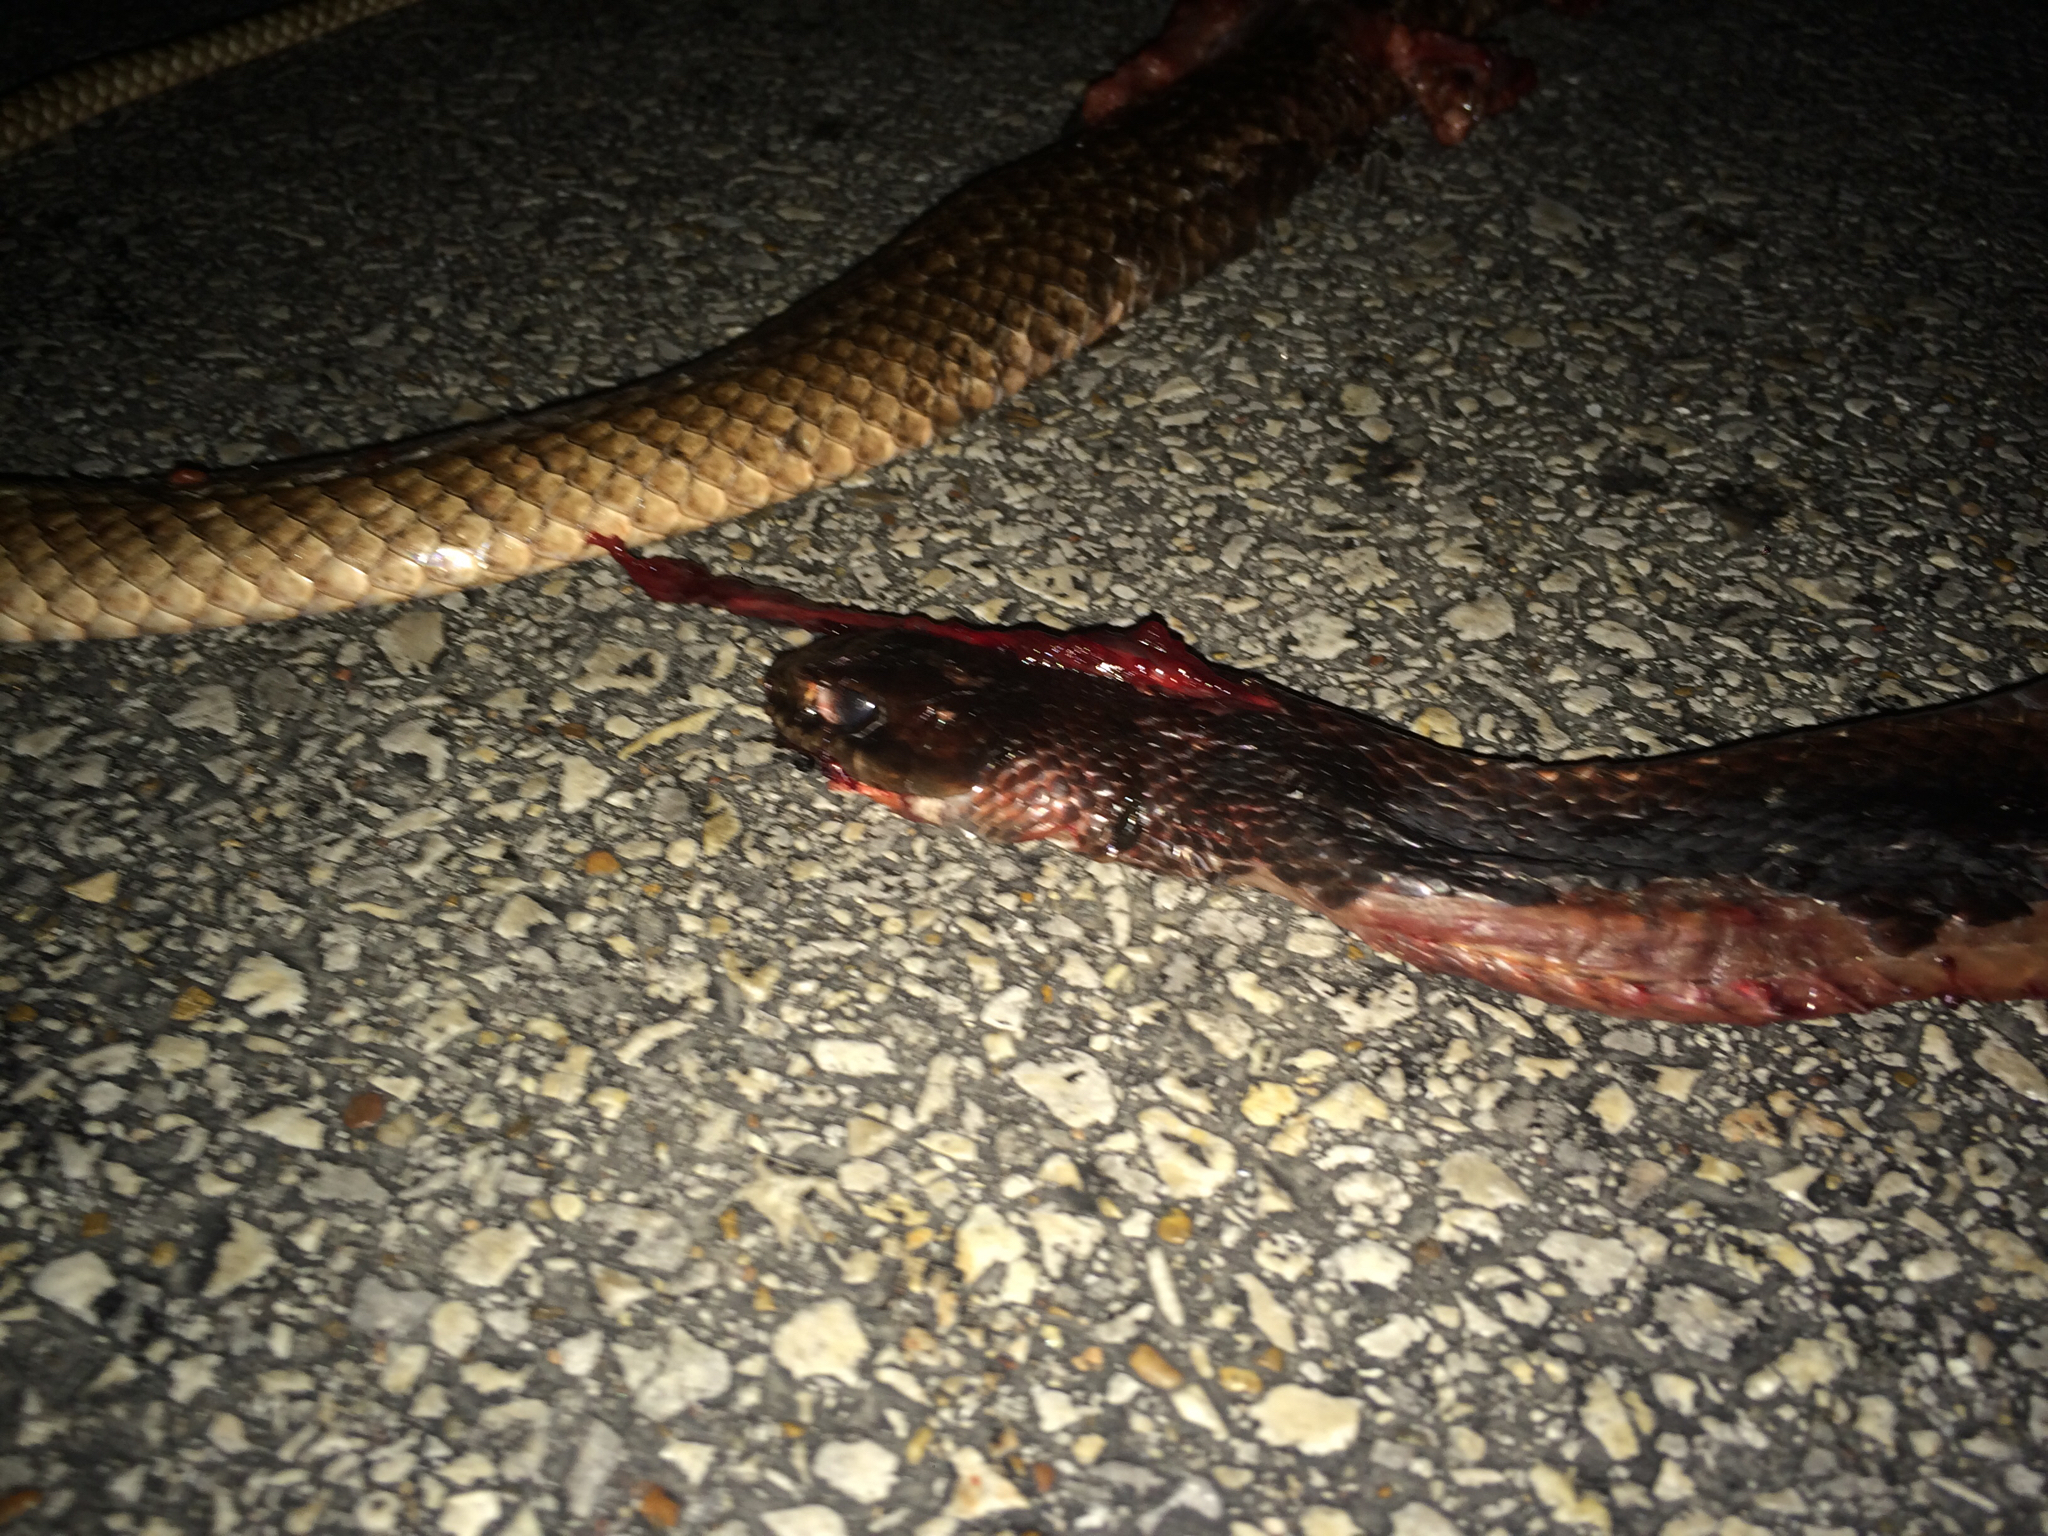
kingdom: Animalia
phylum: Chordata
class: Squamata
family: Colubridae
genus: Masticophis
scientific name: Masticophis flagellum
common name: Coachwhip
